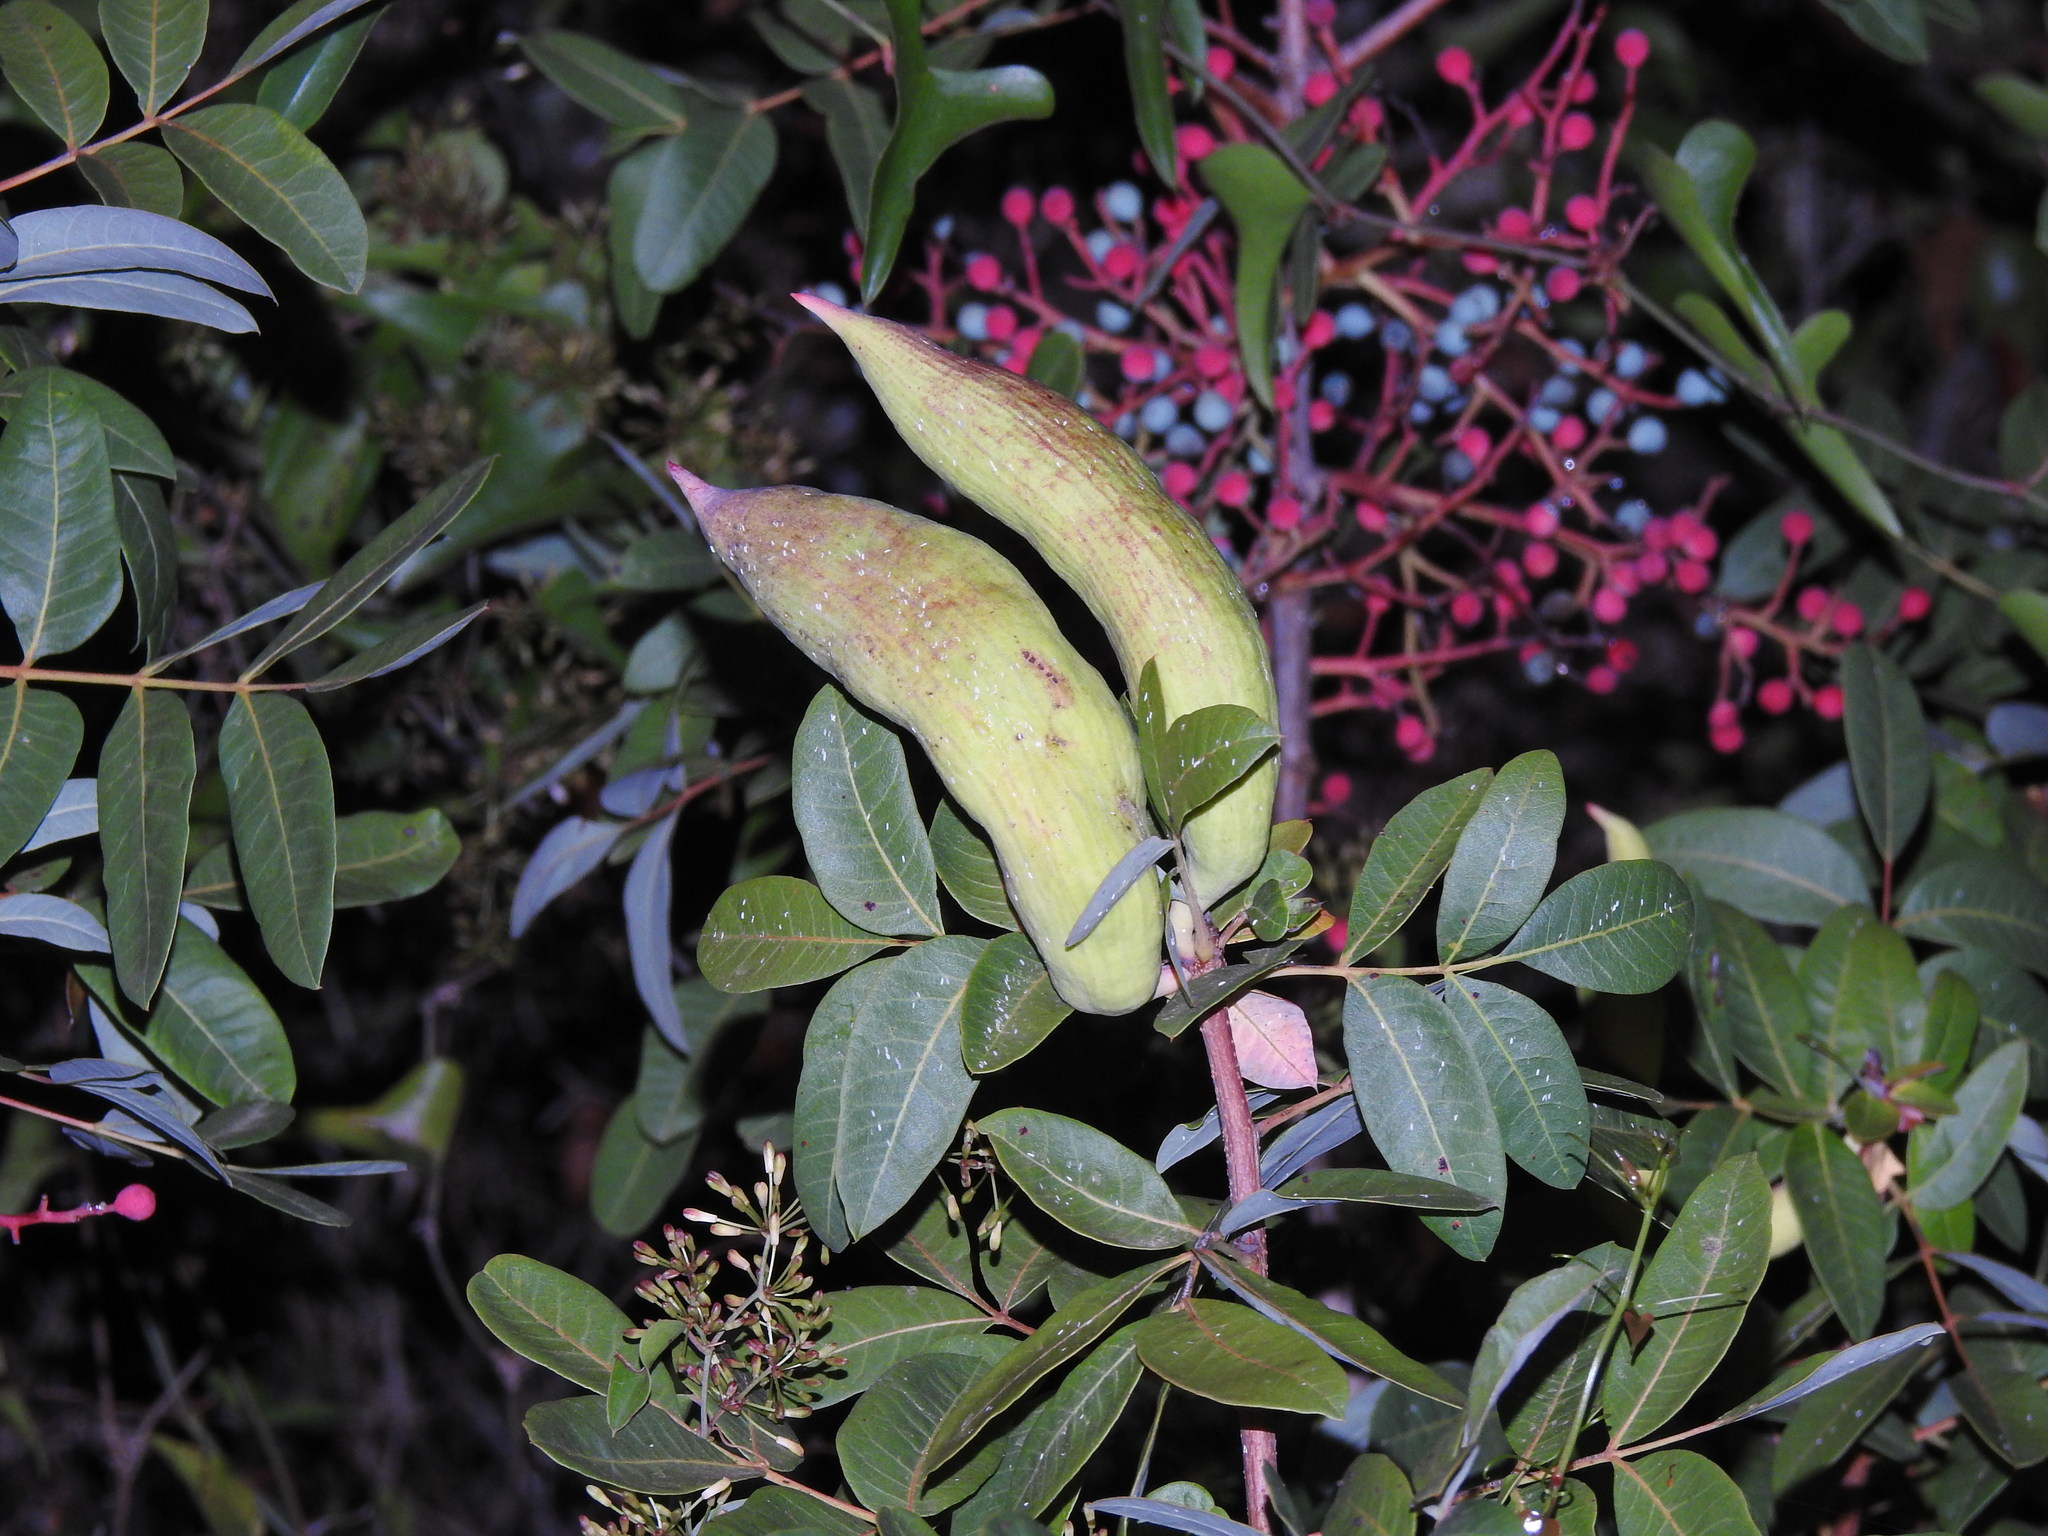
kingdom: Animalia
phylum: Arthropoda
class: Insecta
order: Hemiptera
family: Aphididae
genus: Baizongia
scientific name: Baizongia pistaciae
